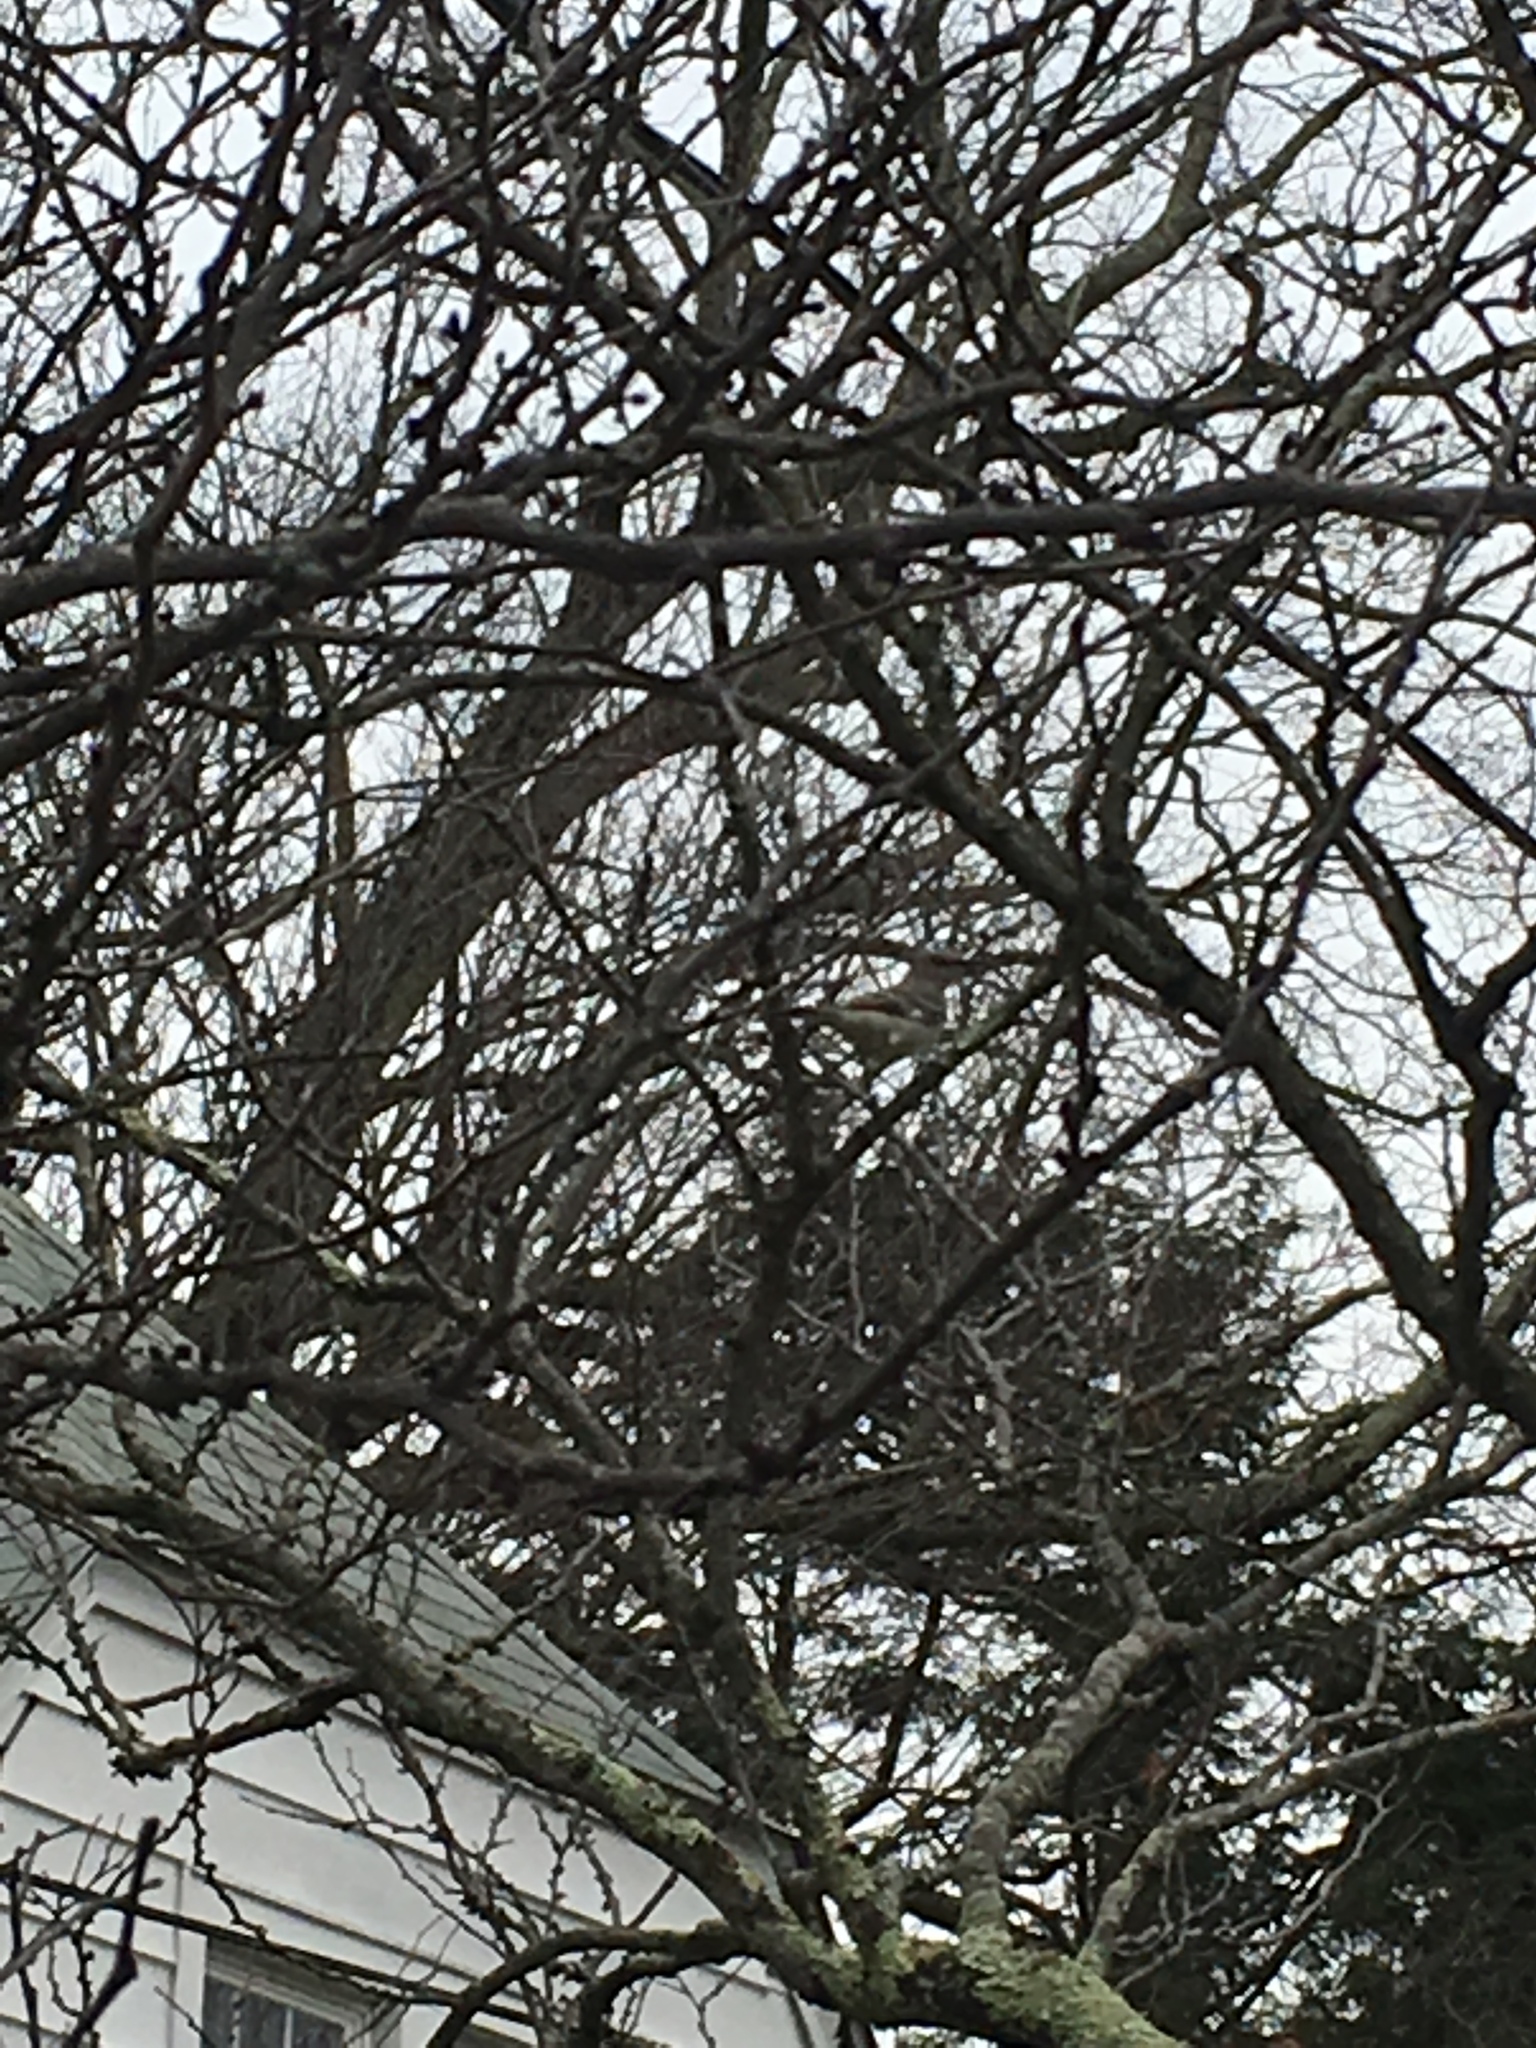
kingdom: Animalia
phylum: Chordata
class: Aves
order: Passeriformes
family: Mimidae
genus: Mimus
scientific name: Mimus polyglottos
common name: Northern mockingbird
